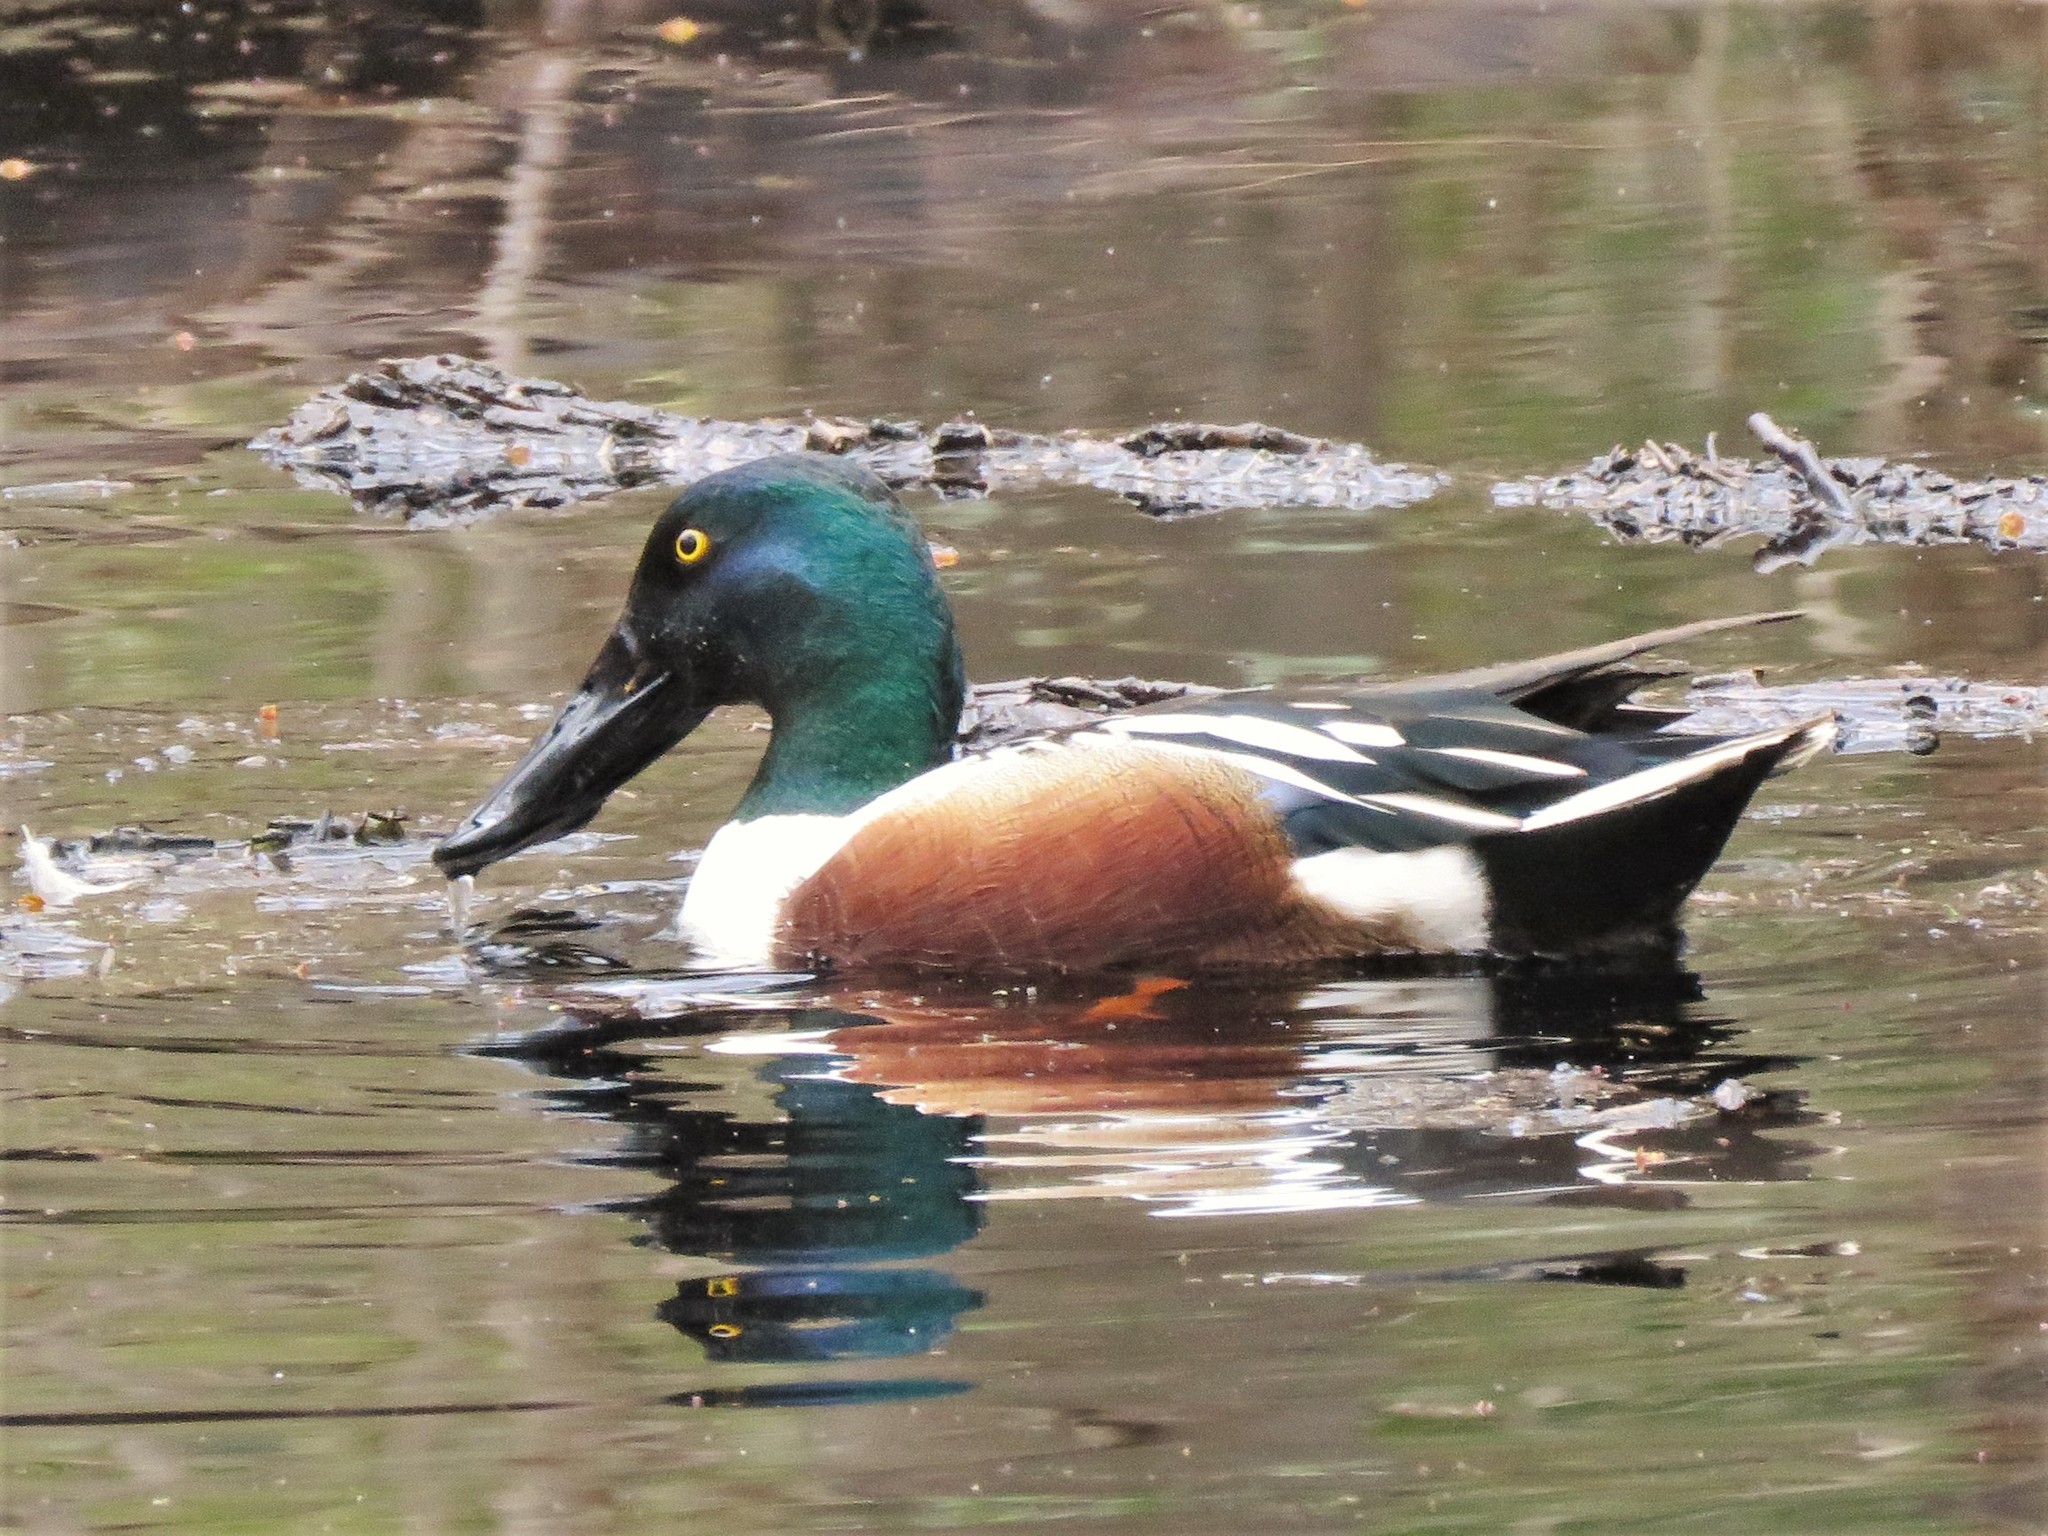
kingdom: Animalia
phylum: Chordata
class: Aves
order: Anseriformes
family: Anatidae
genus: Spatula
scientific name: Spatula clypeata
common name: Northern shoveler
